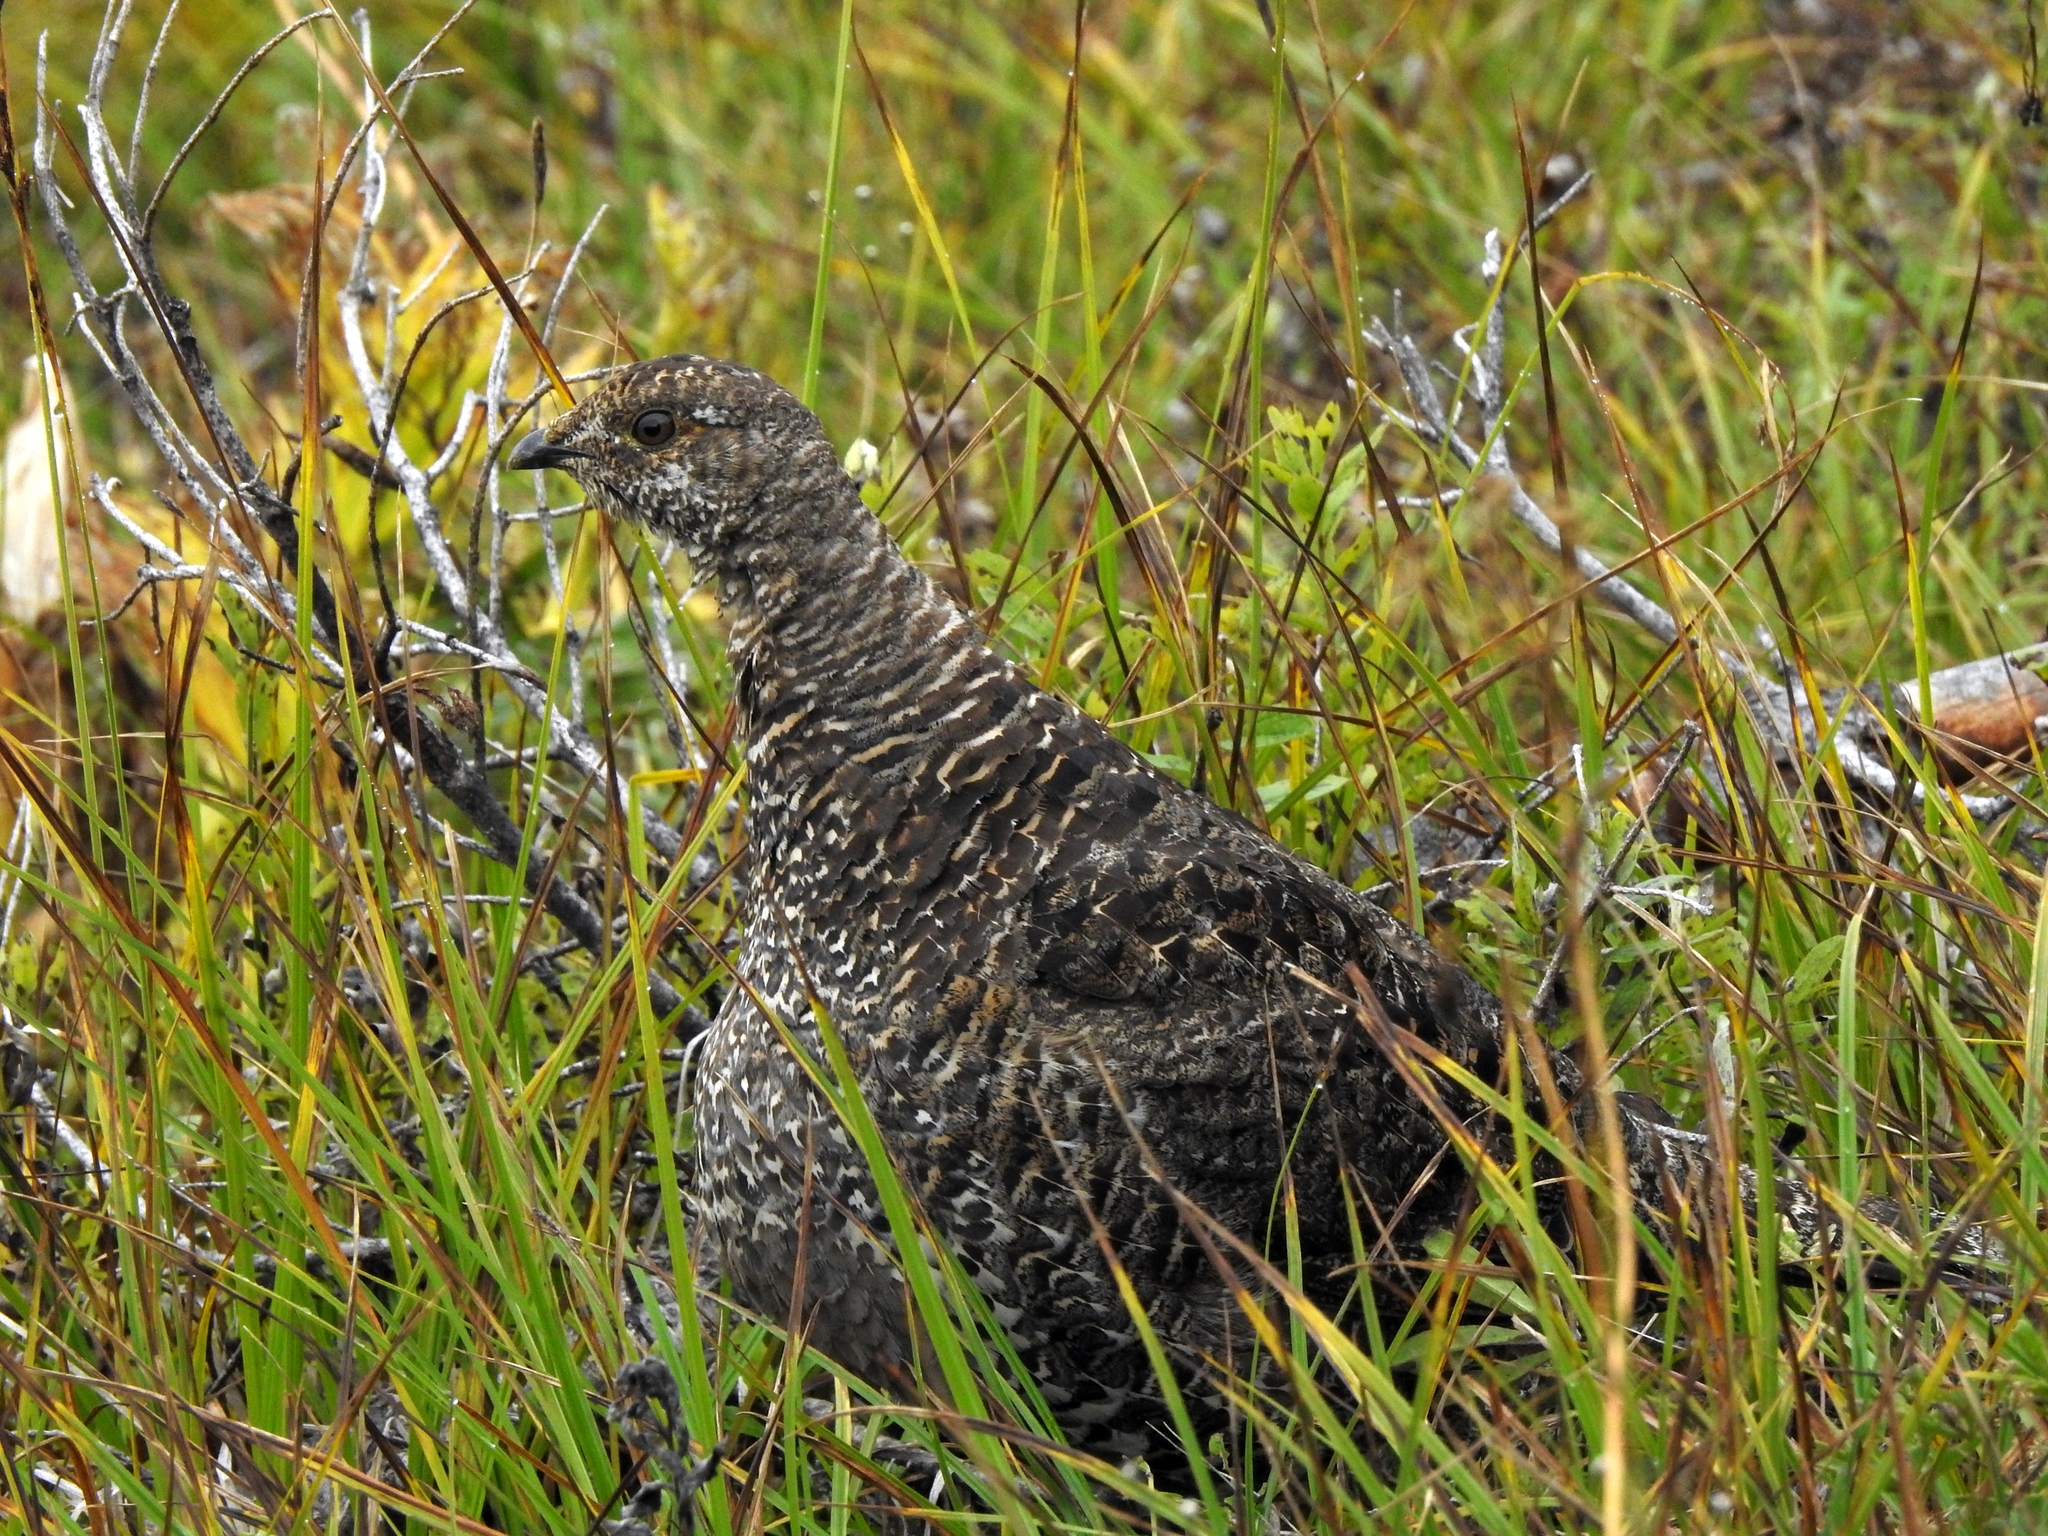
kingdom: Animalia
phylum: Chordata
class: Aves
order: Galliformes
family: Phasianidae
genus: Dendragapus
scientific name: Dendragapus fuliginosus
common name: Sooty grouse
